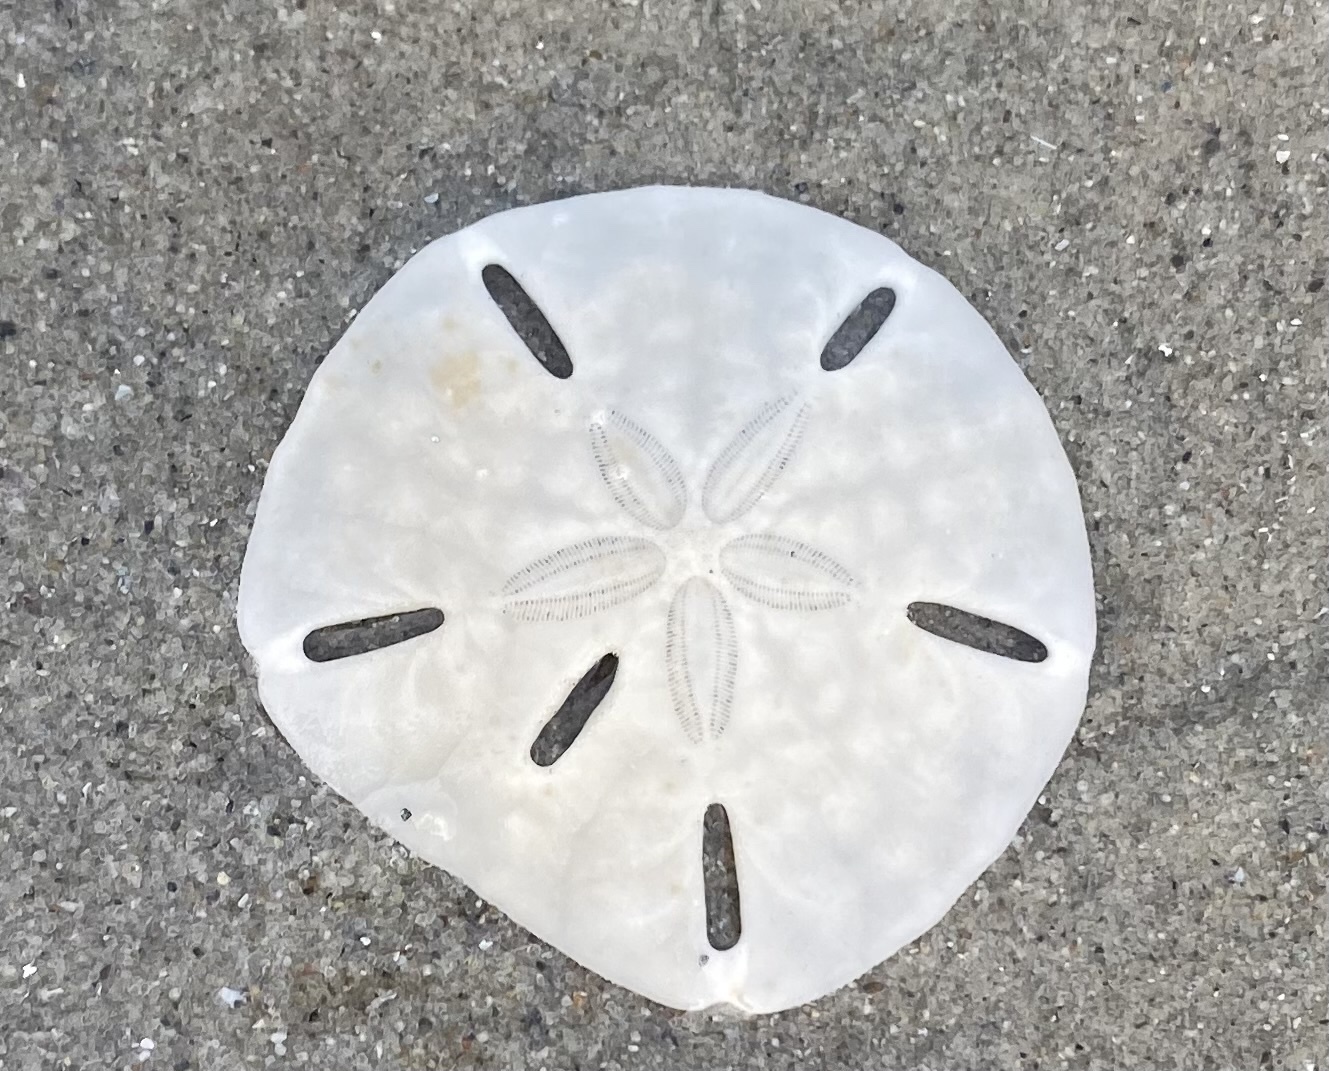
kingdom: Animalia
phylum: Echinodermata
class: Echinoidea
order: Echinolampadacea
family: Mellitidae
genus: Leodia
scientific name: Leodia sexiesperforata
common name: Sand dollar
